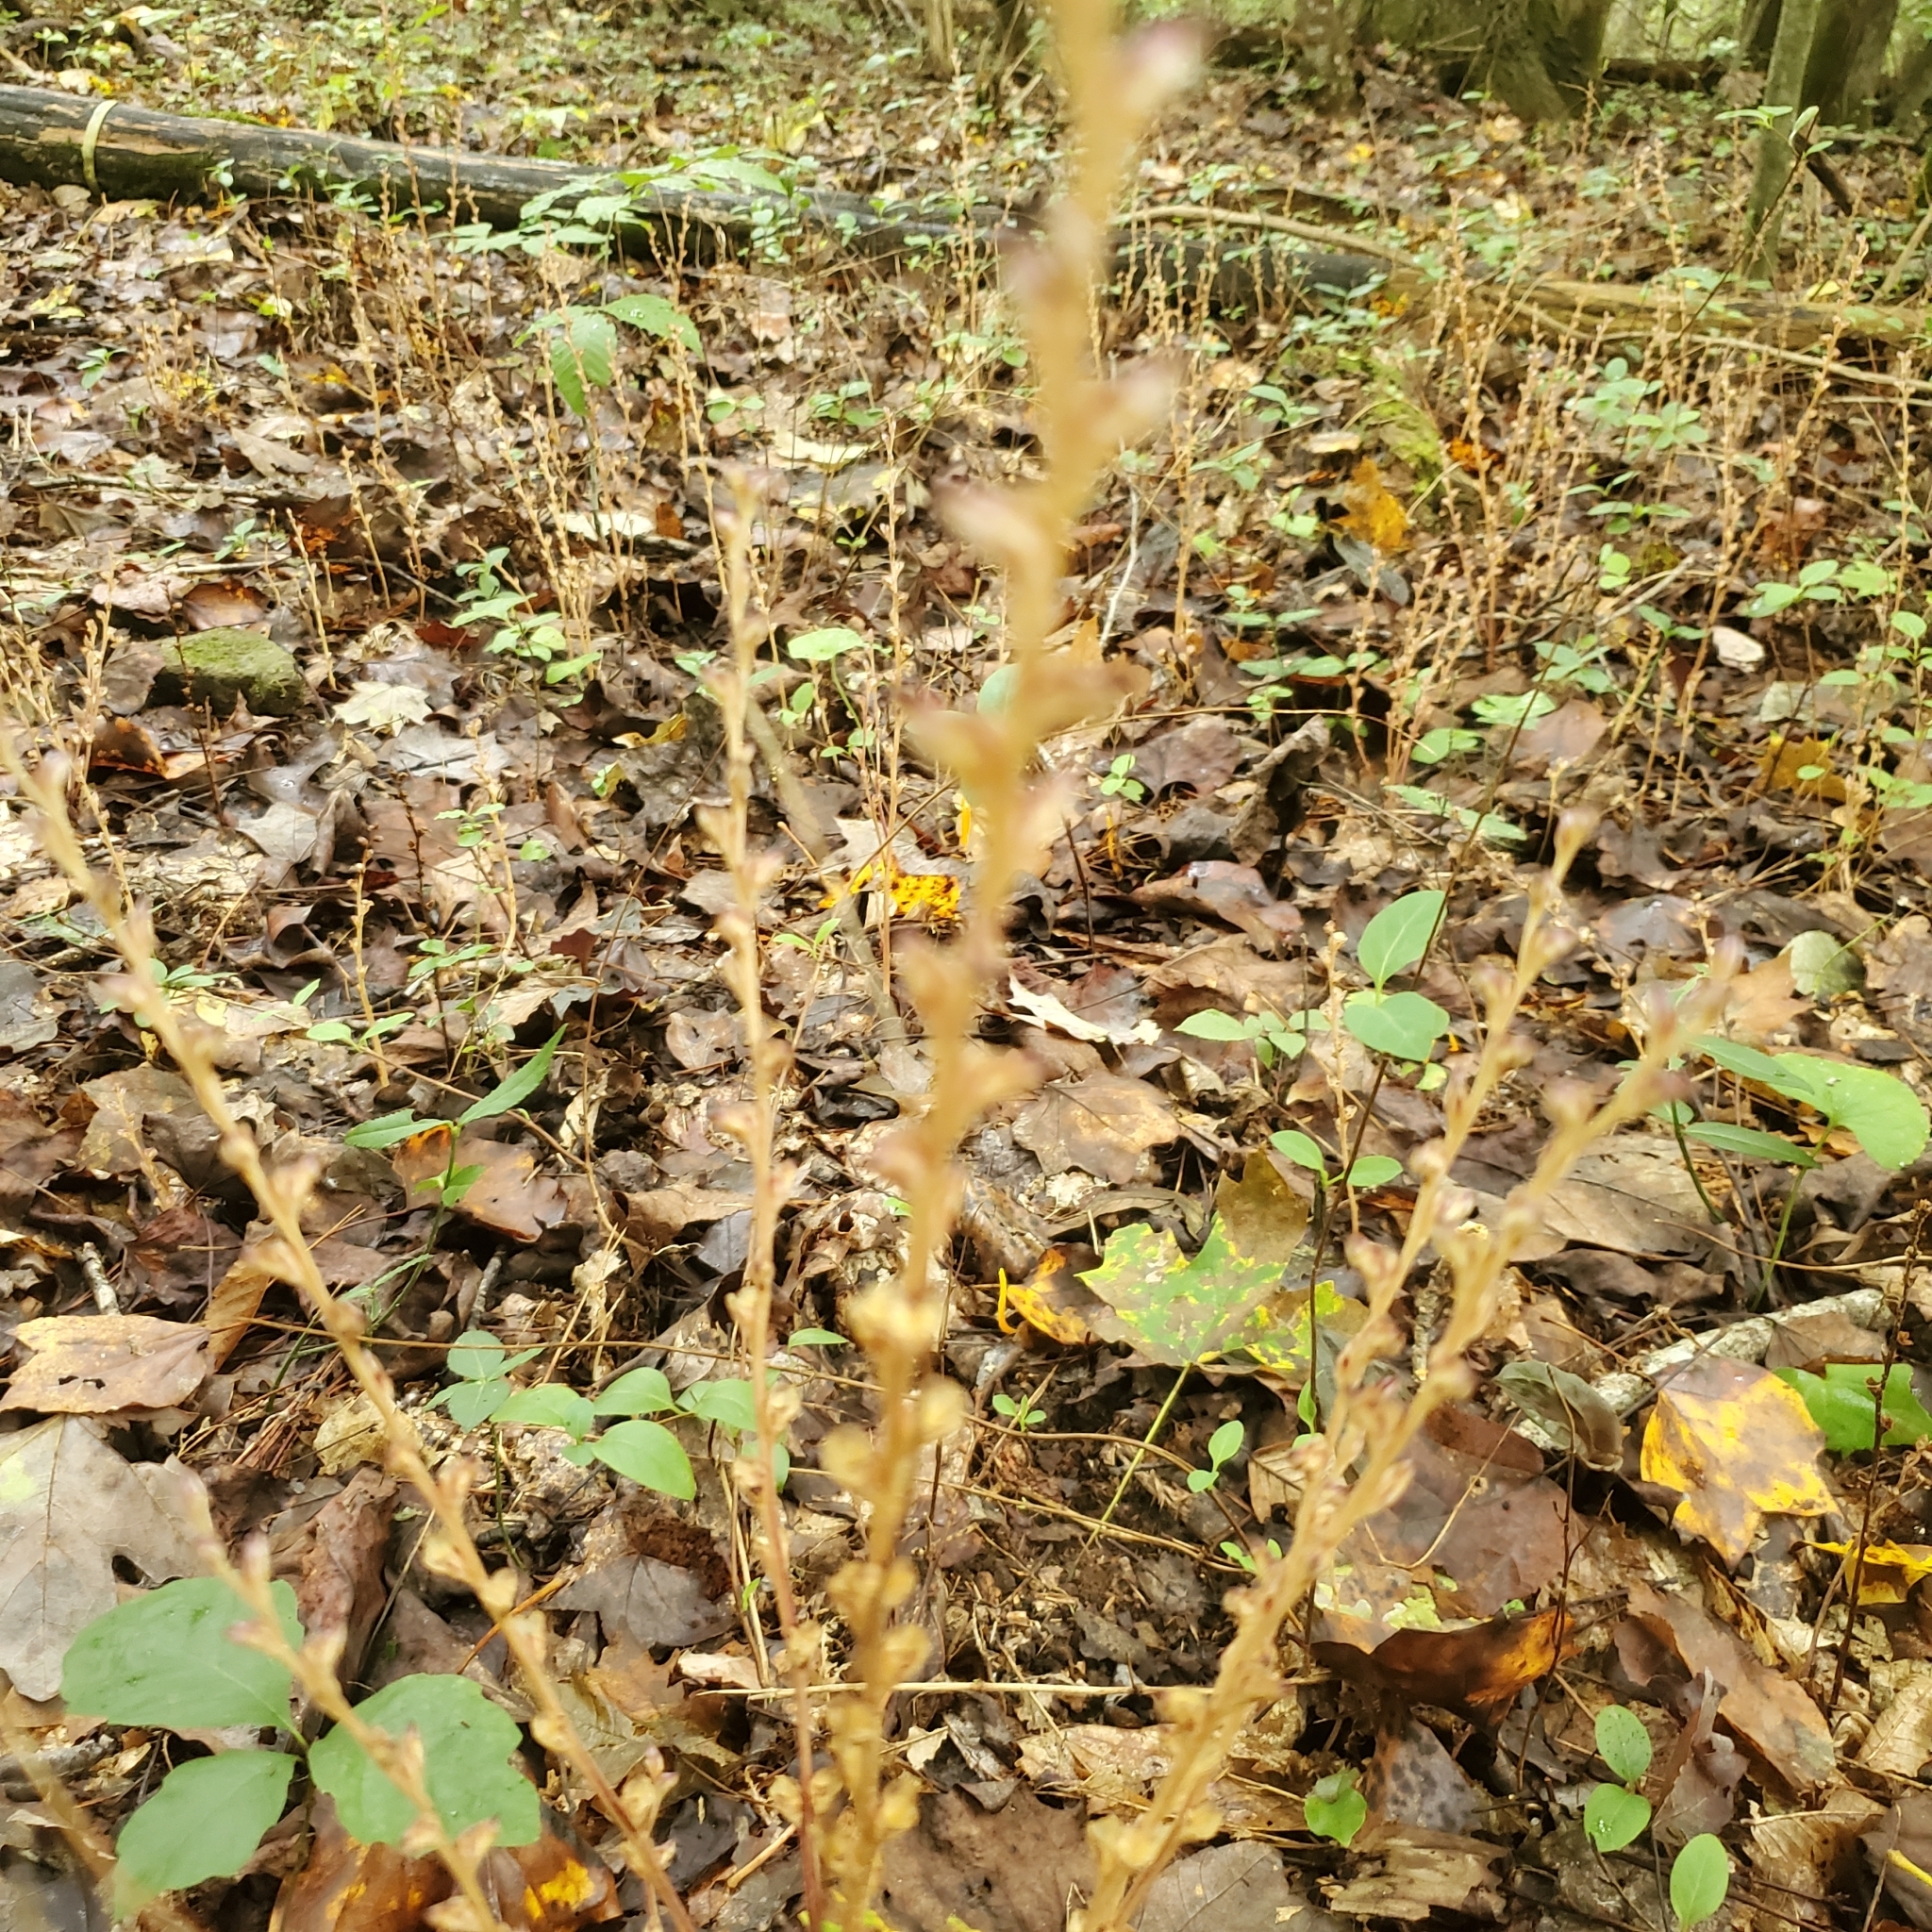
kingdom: Plantae
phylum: Tracheophyta
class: Magnoliopsida
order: Lamiales
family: Orobanchaceae
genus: Epifagus
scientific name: Epifagus virginiana
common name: Beechdrops
